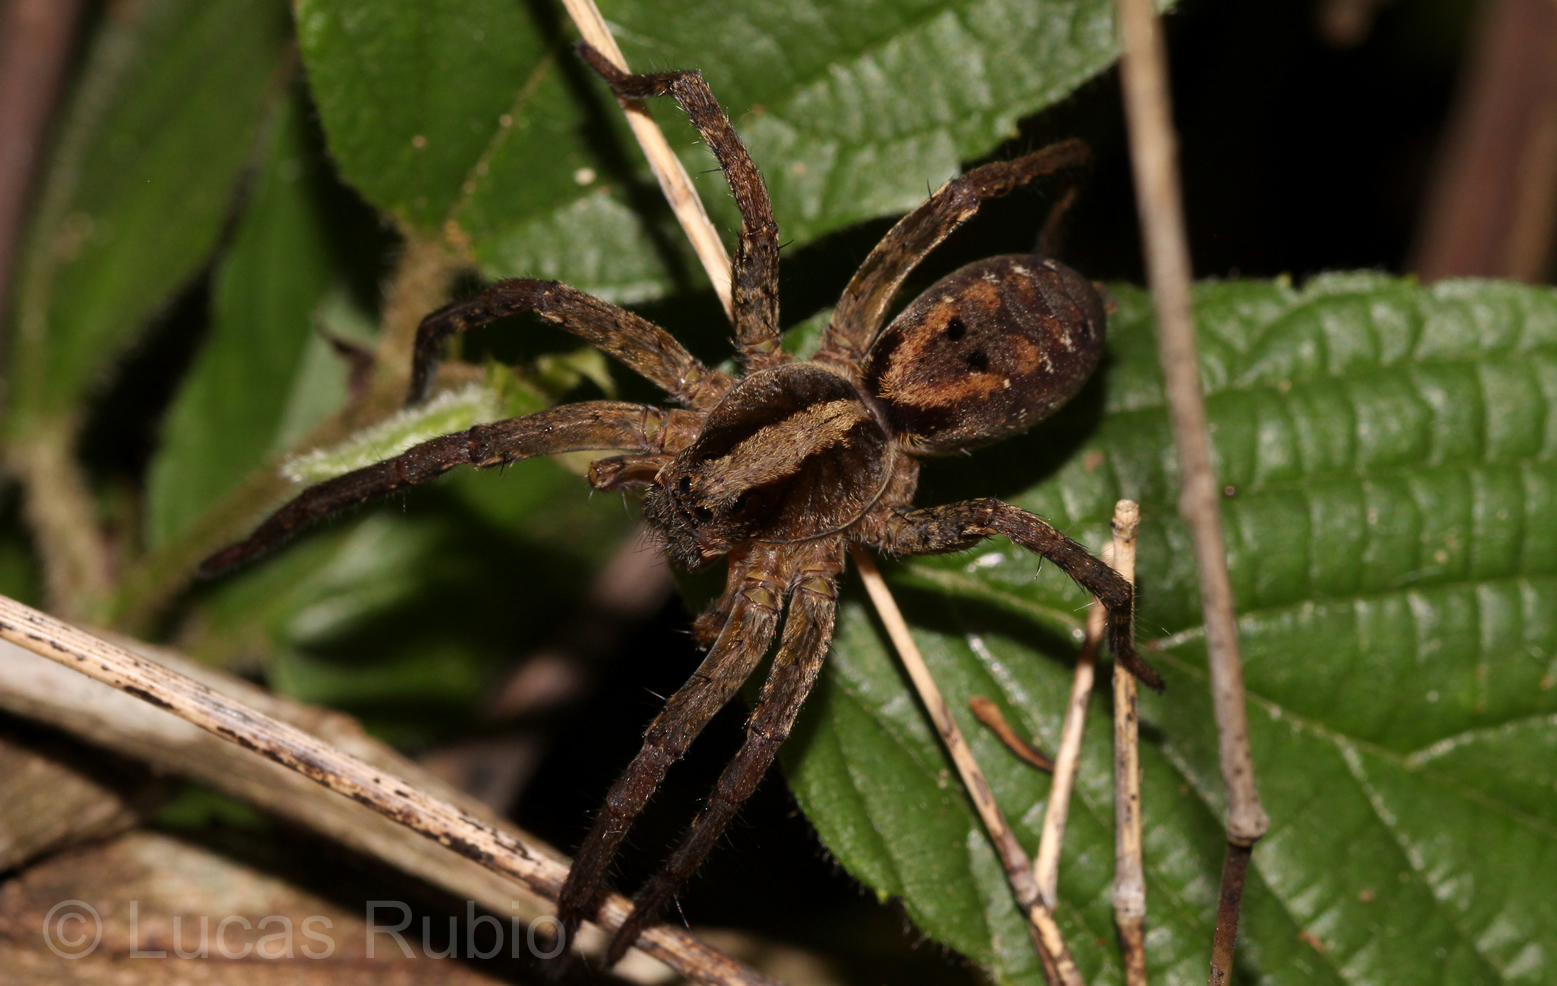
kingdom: Animalia
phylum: Arthropoda
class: Arachnida
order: Araneae
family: Lycosidae
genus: Hogna
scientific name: Hogna gumia
